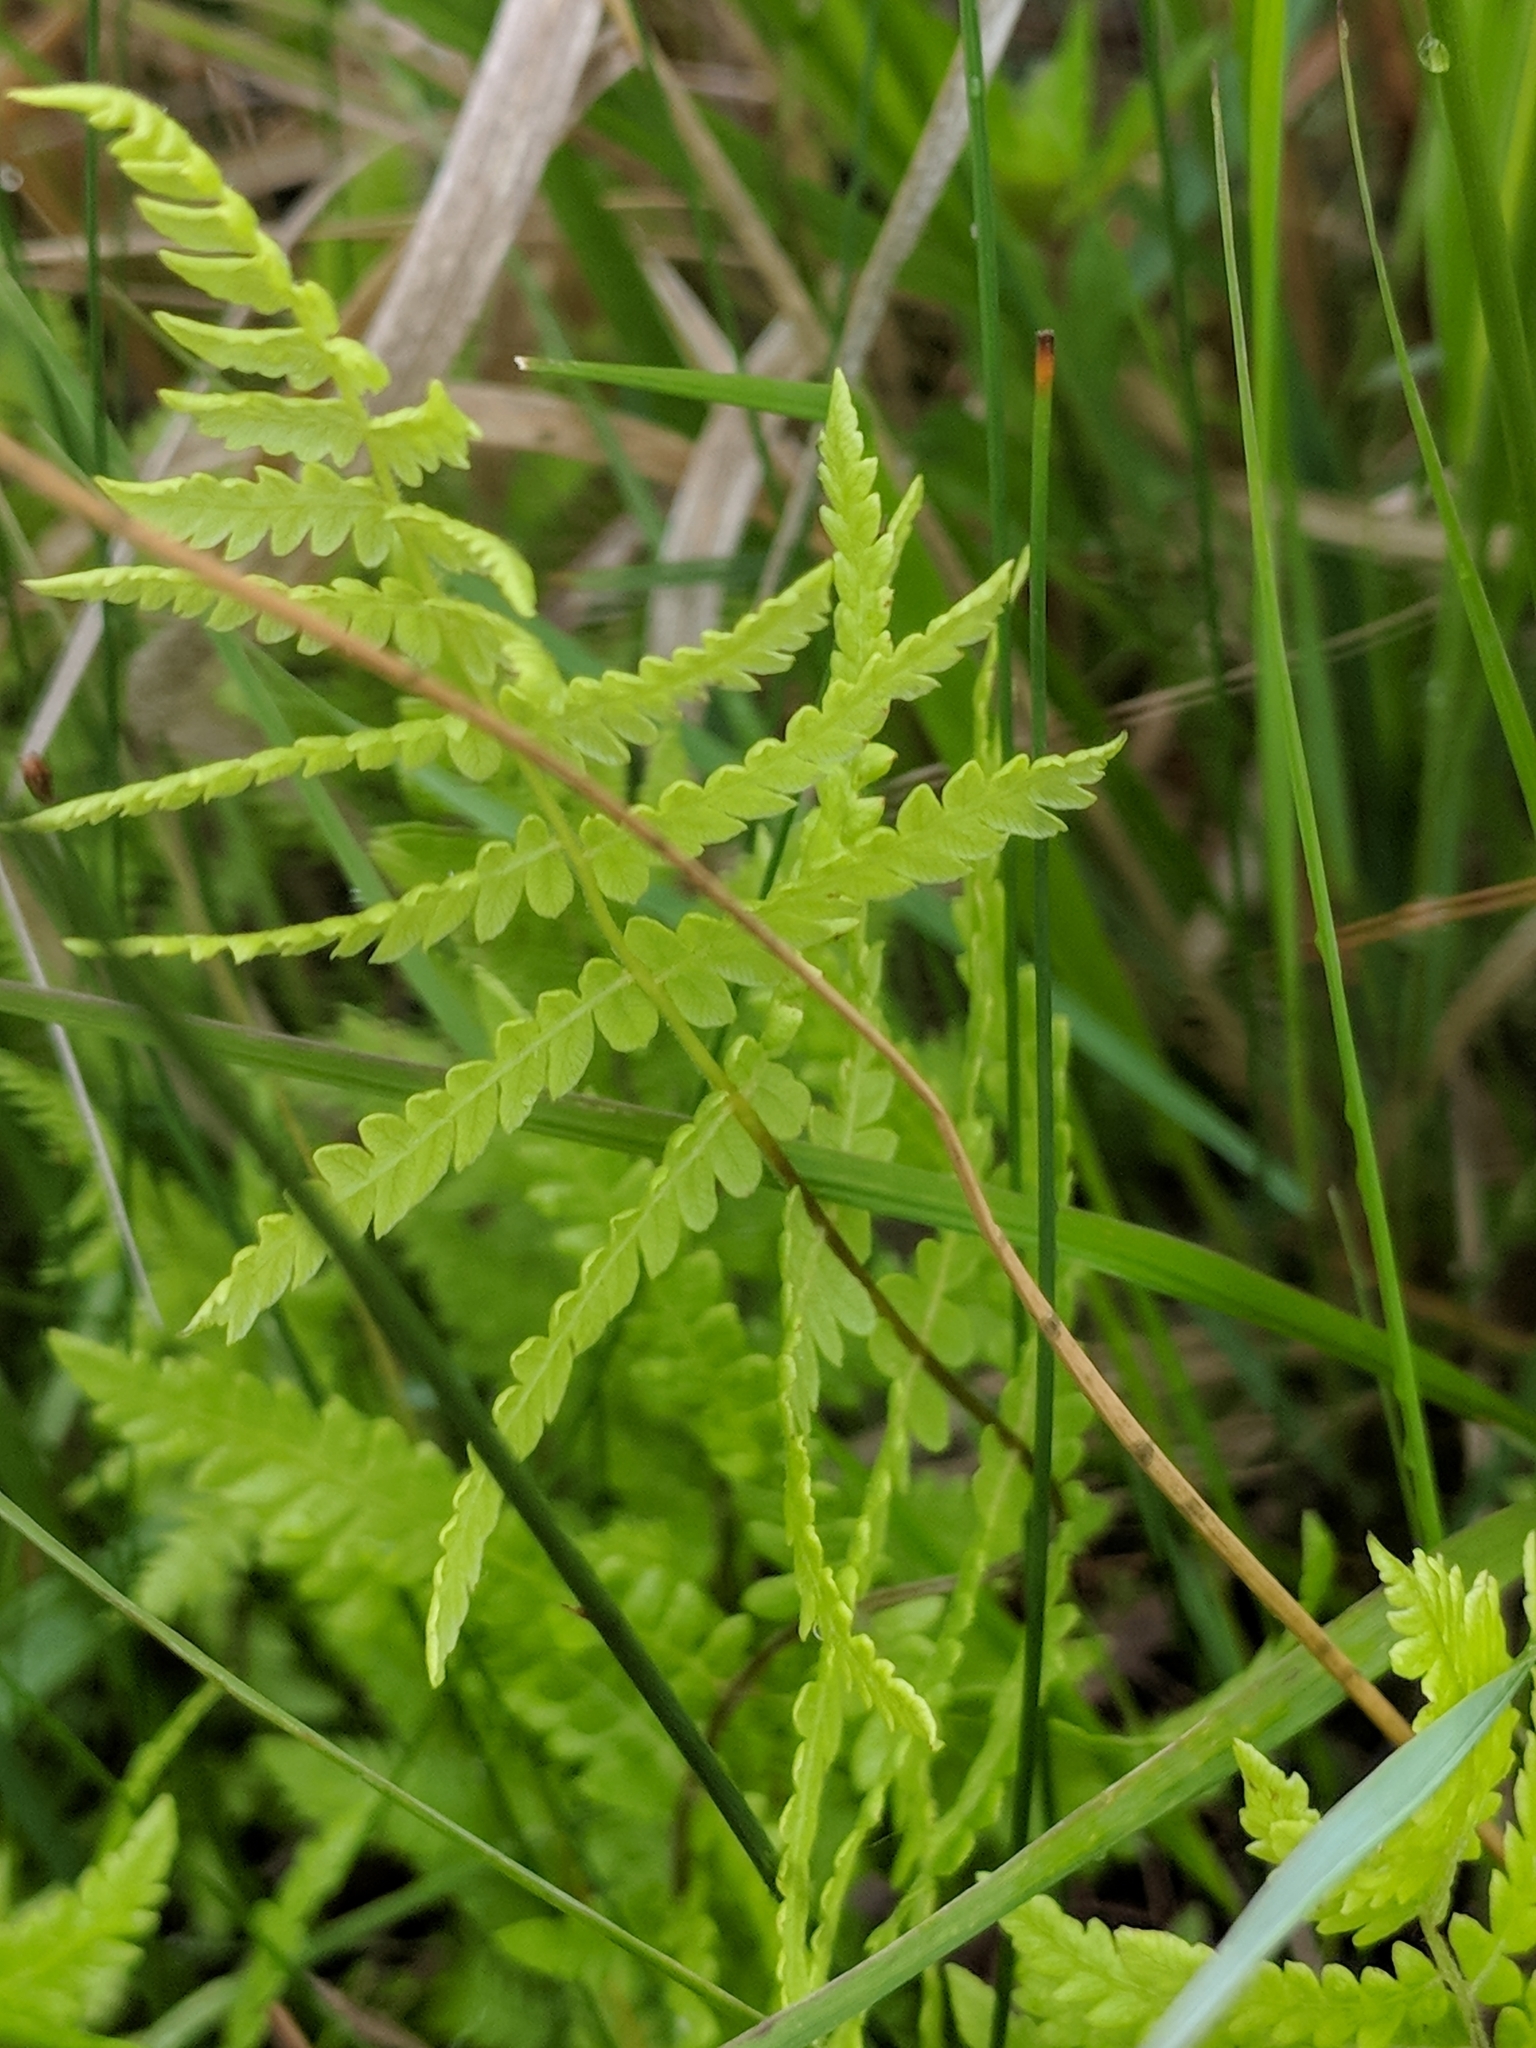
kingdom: Plantae
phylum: Tracheophyta
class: Polypodiopsida
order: Polypodiales
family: Thelypteridaceae
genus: Thelypteris
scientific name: Thelypteris palustris
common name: Marsh fern
